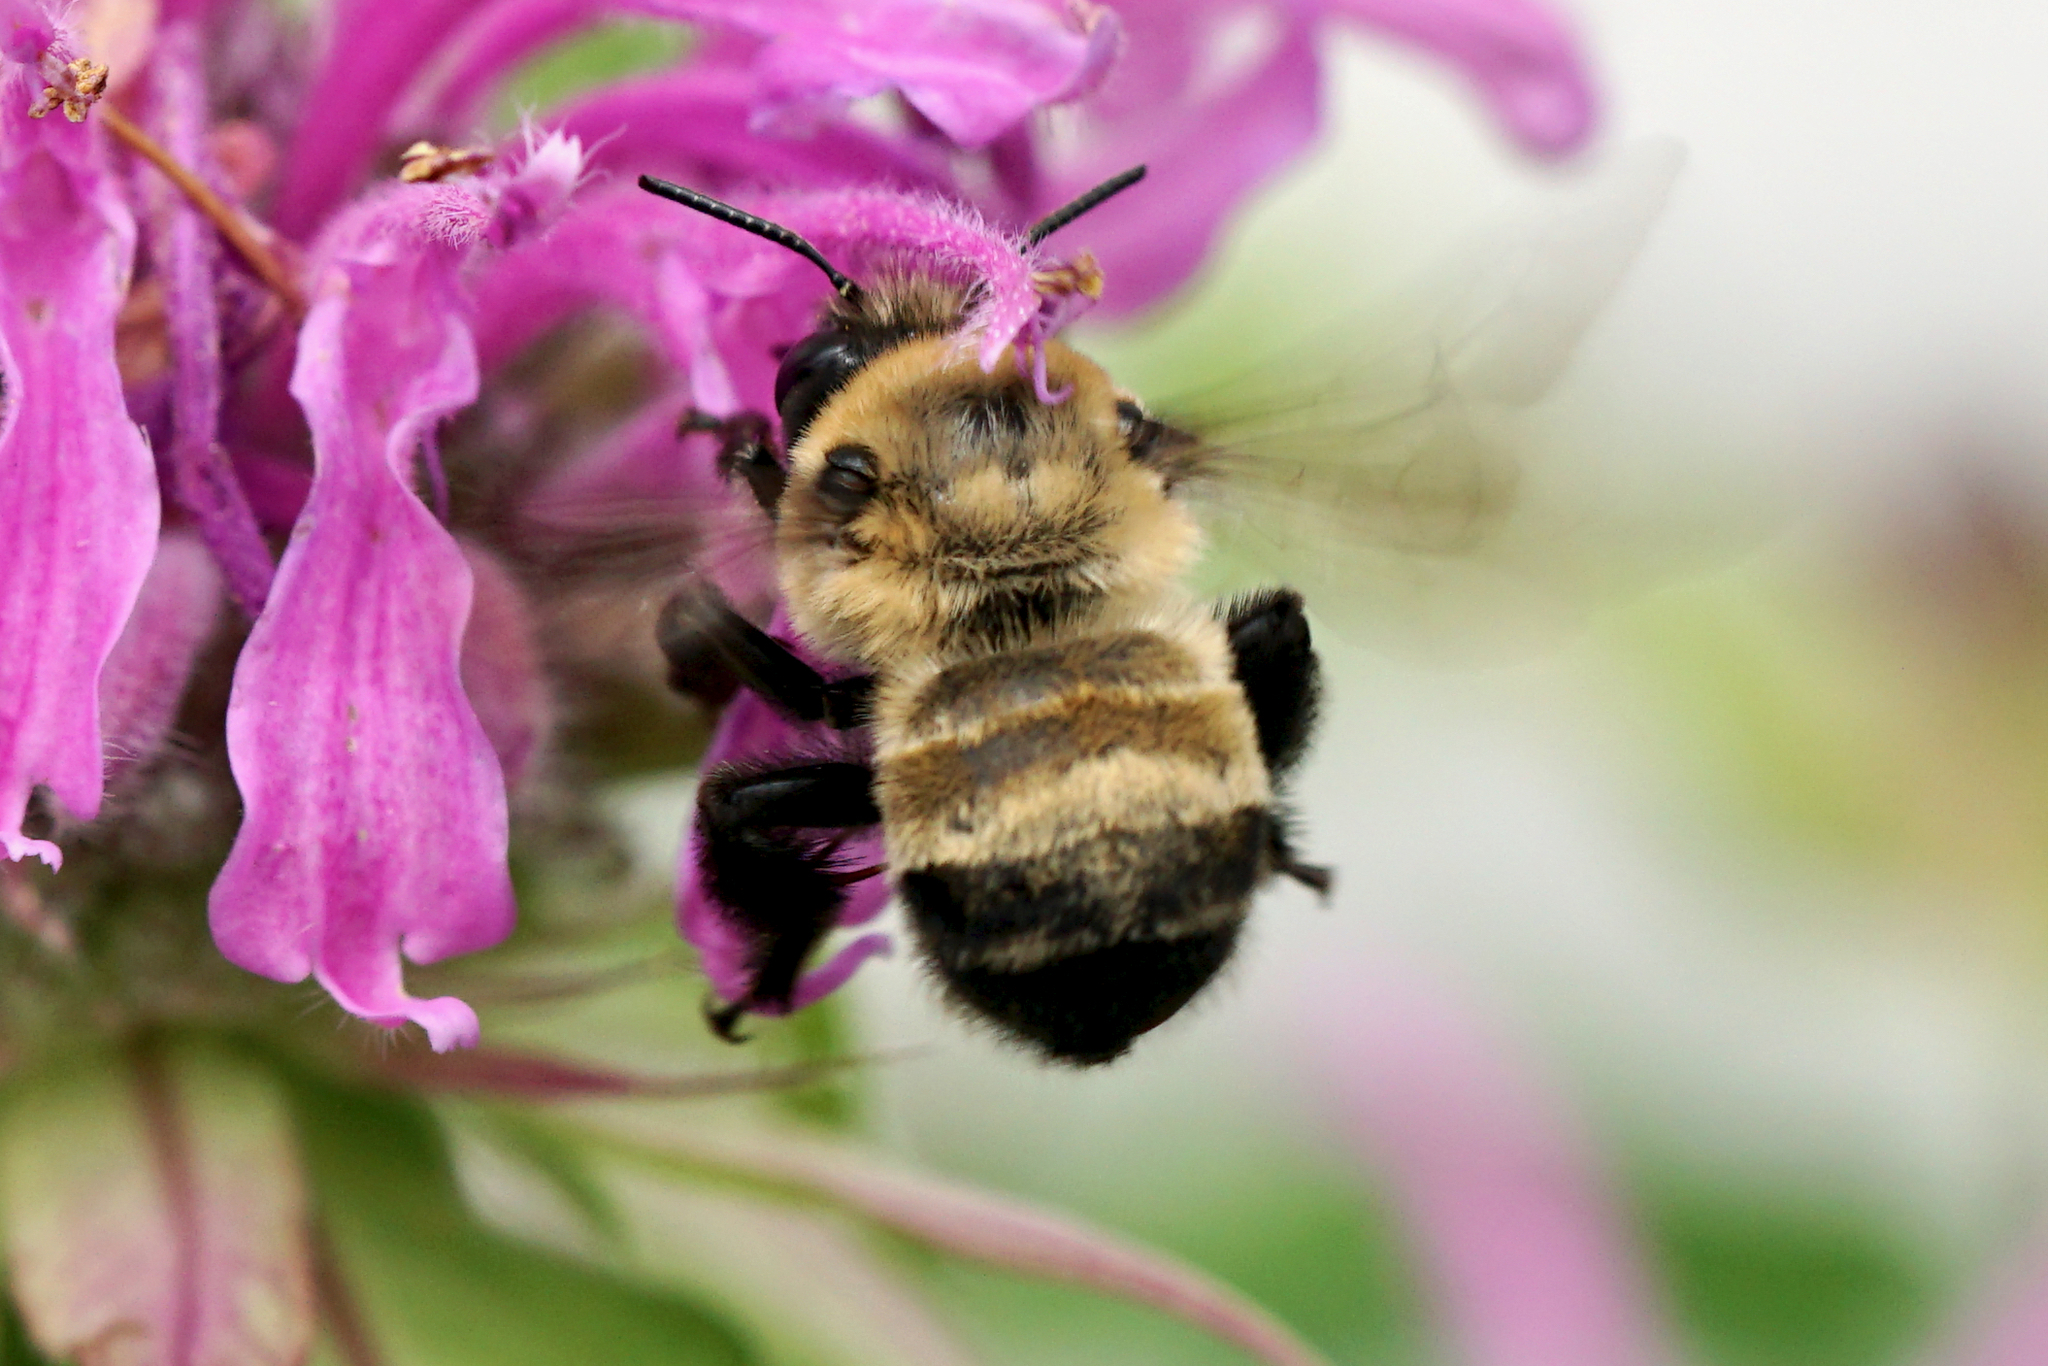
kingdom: Animalia
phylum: Arthropoda
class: Insecta
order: Hymenoptera
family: Apidae
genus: Anthophora
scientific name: Anthophora bomboides
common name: Bumble-bee-mimic digger bee
